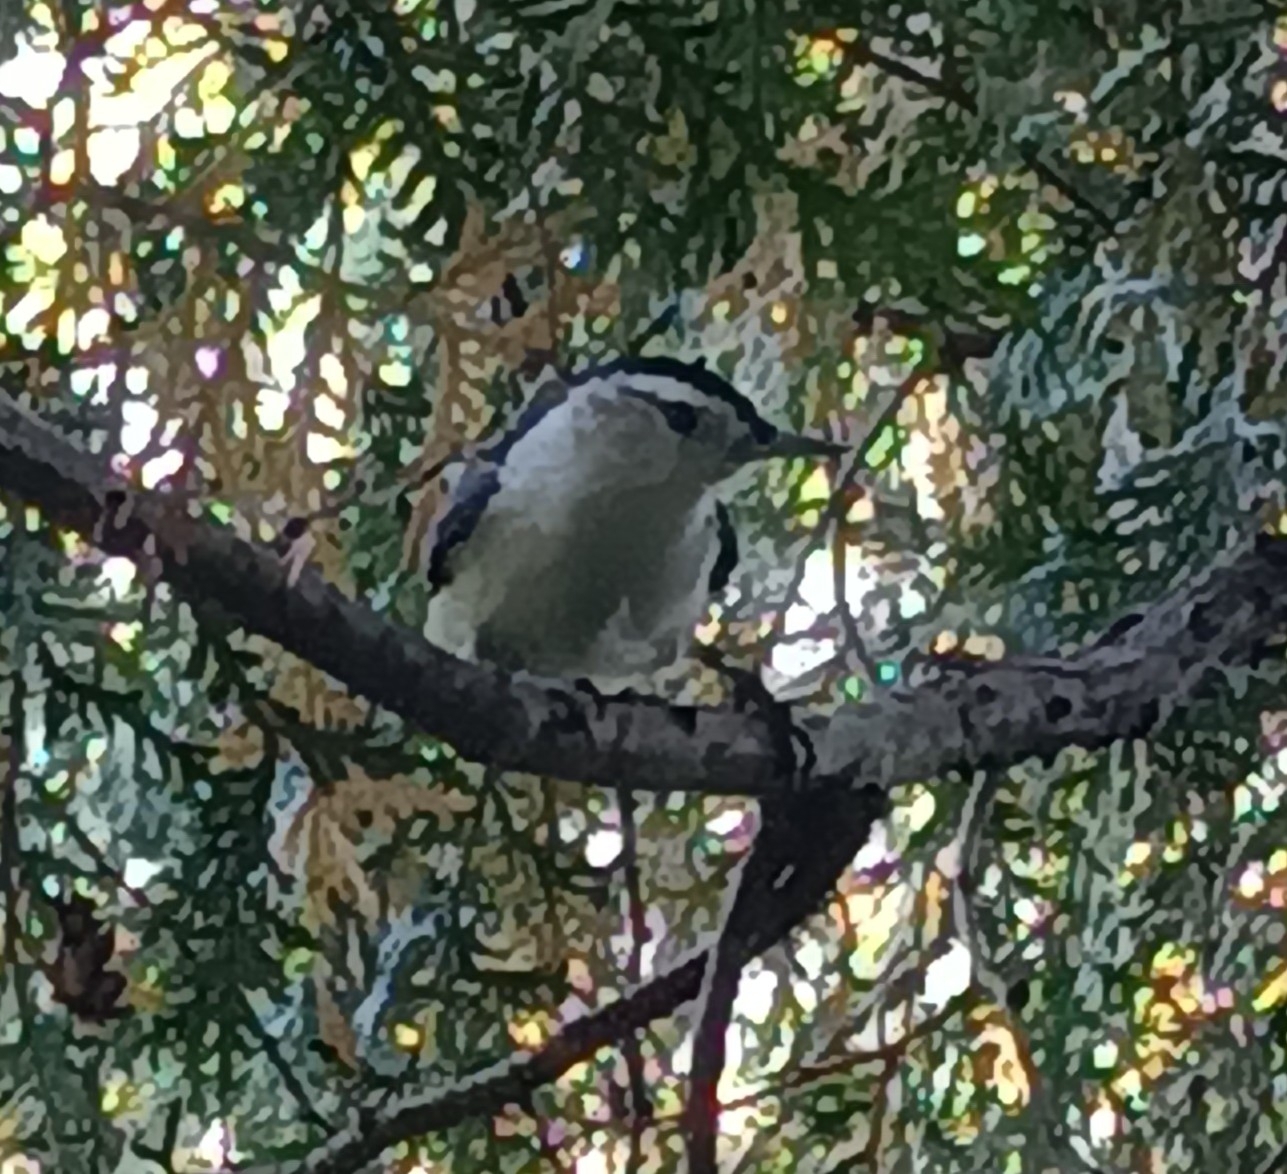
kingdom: Animalia
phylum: Chordata
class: Aves
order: Passeriformes
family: Sittidae
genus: Sitta
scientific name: Sitta carolinensis
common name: White-breasted nuthatch
